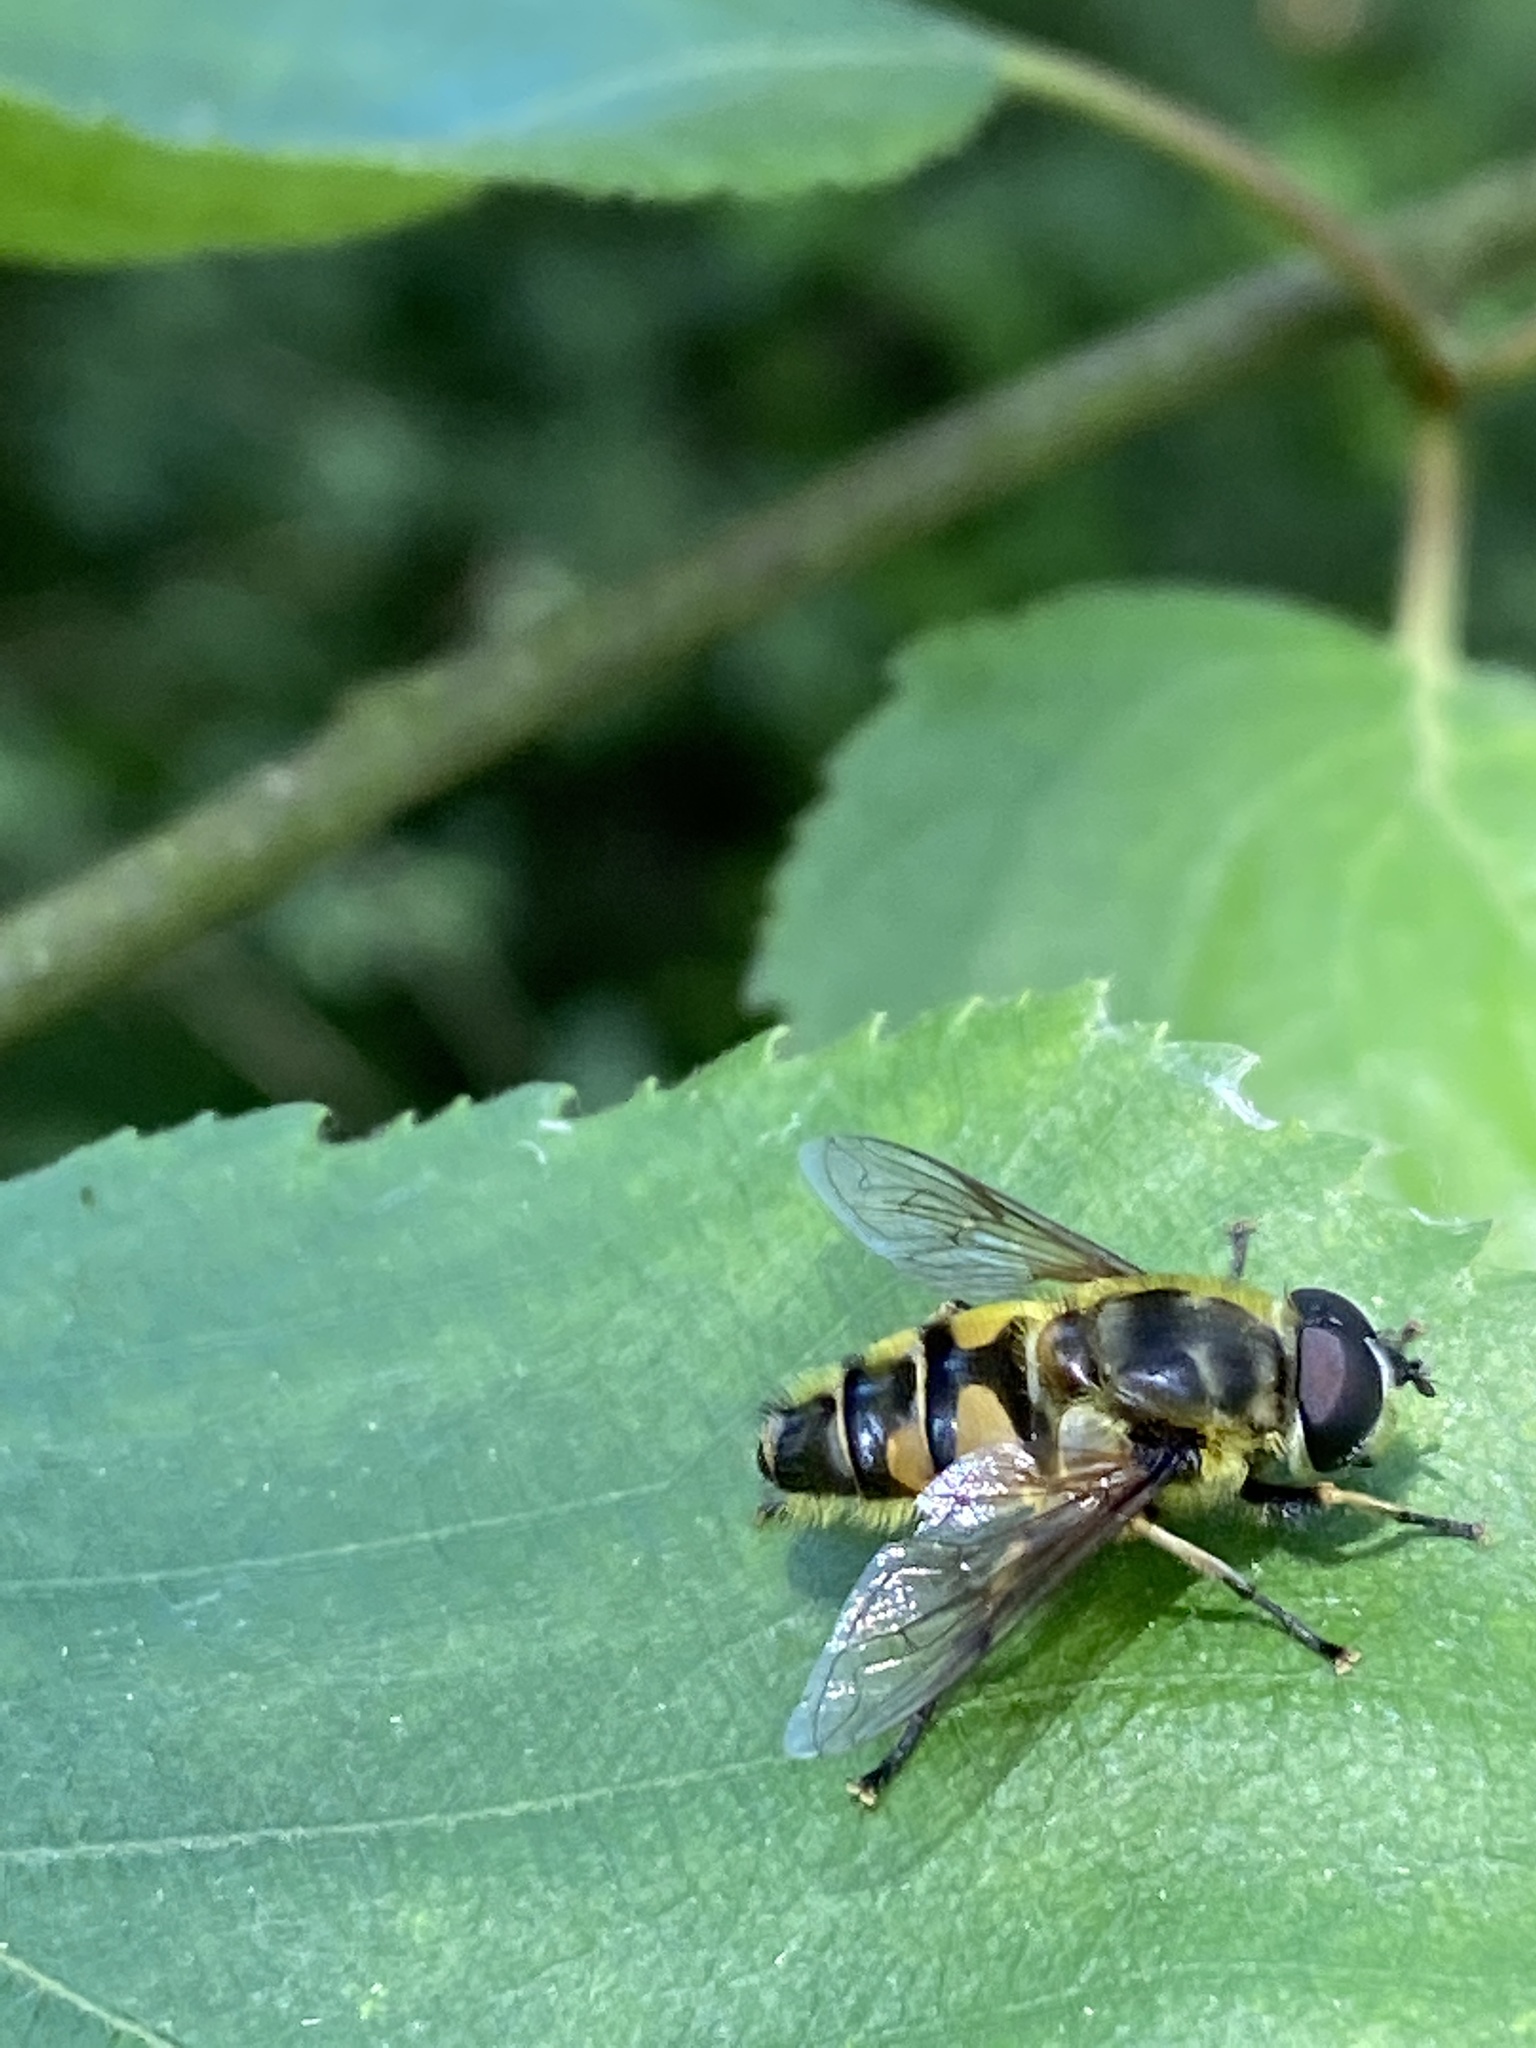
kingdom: Animalia
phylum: Arthropoda
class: Insecta
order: Diptera
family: Syrphidae
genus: Myathropa
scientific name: Myathropa florea
